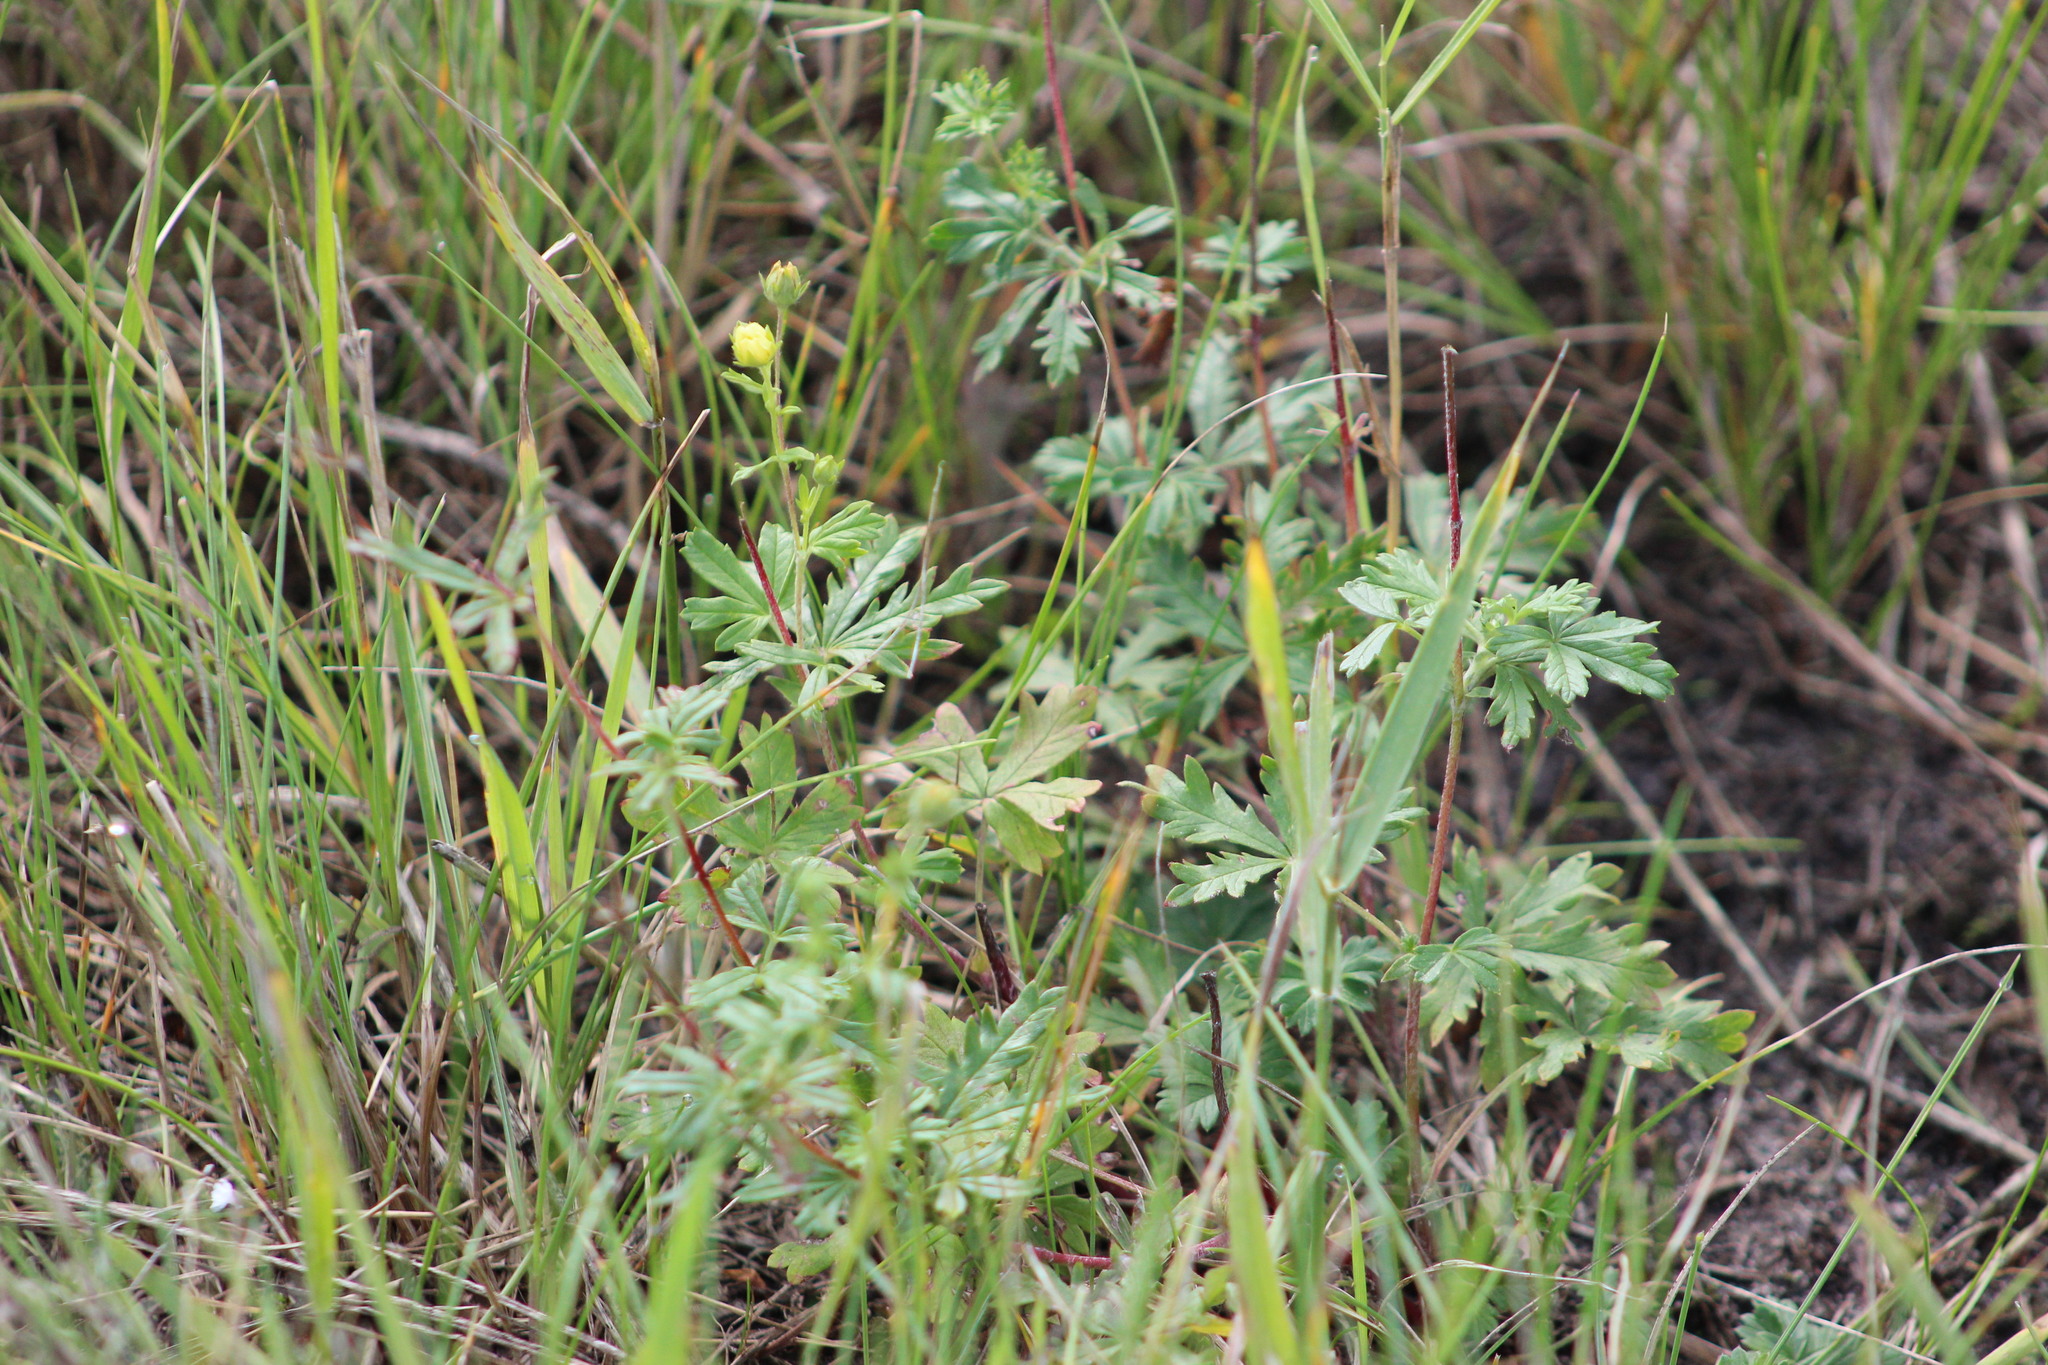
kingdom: Plantae
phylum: Tracheophyta
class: Magnoliopsida
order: Rosales
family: Rosaceae
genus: Potentilla
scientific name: Potentilla argentea
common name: Hoary cinquefoil
